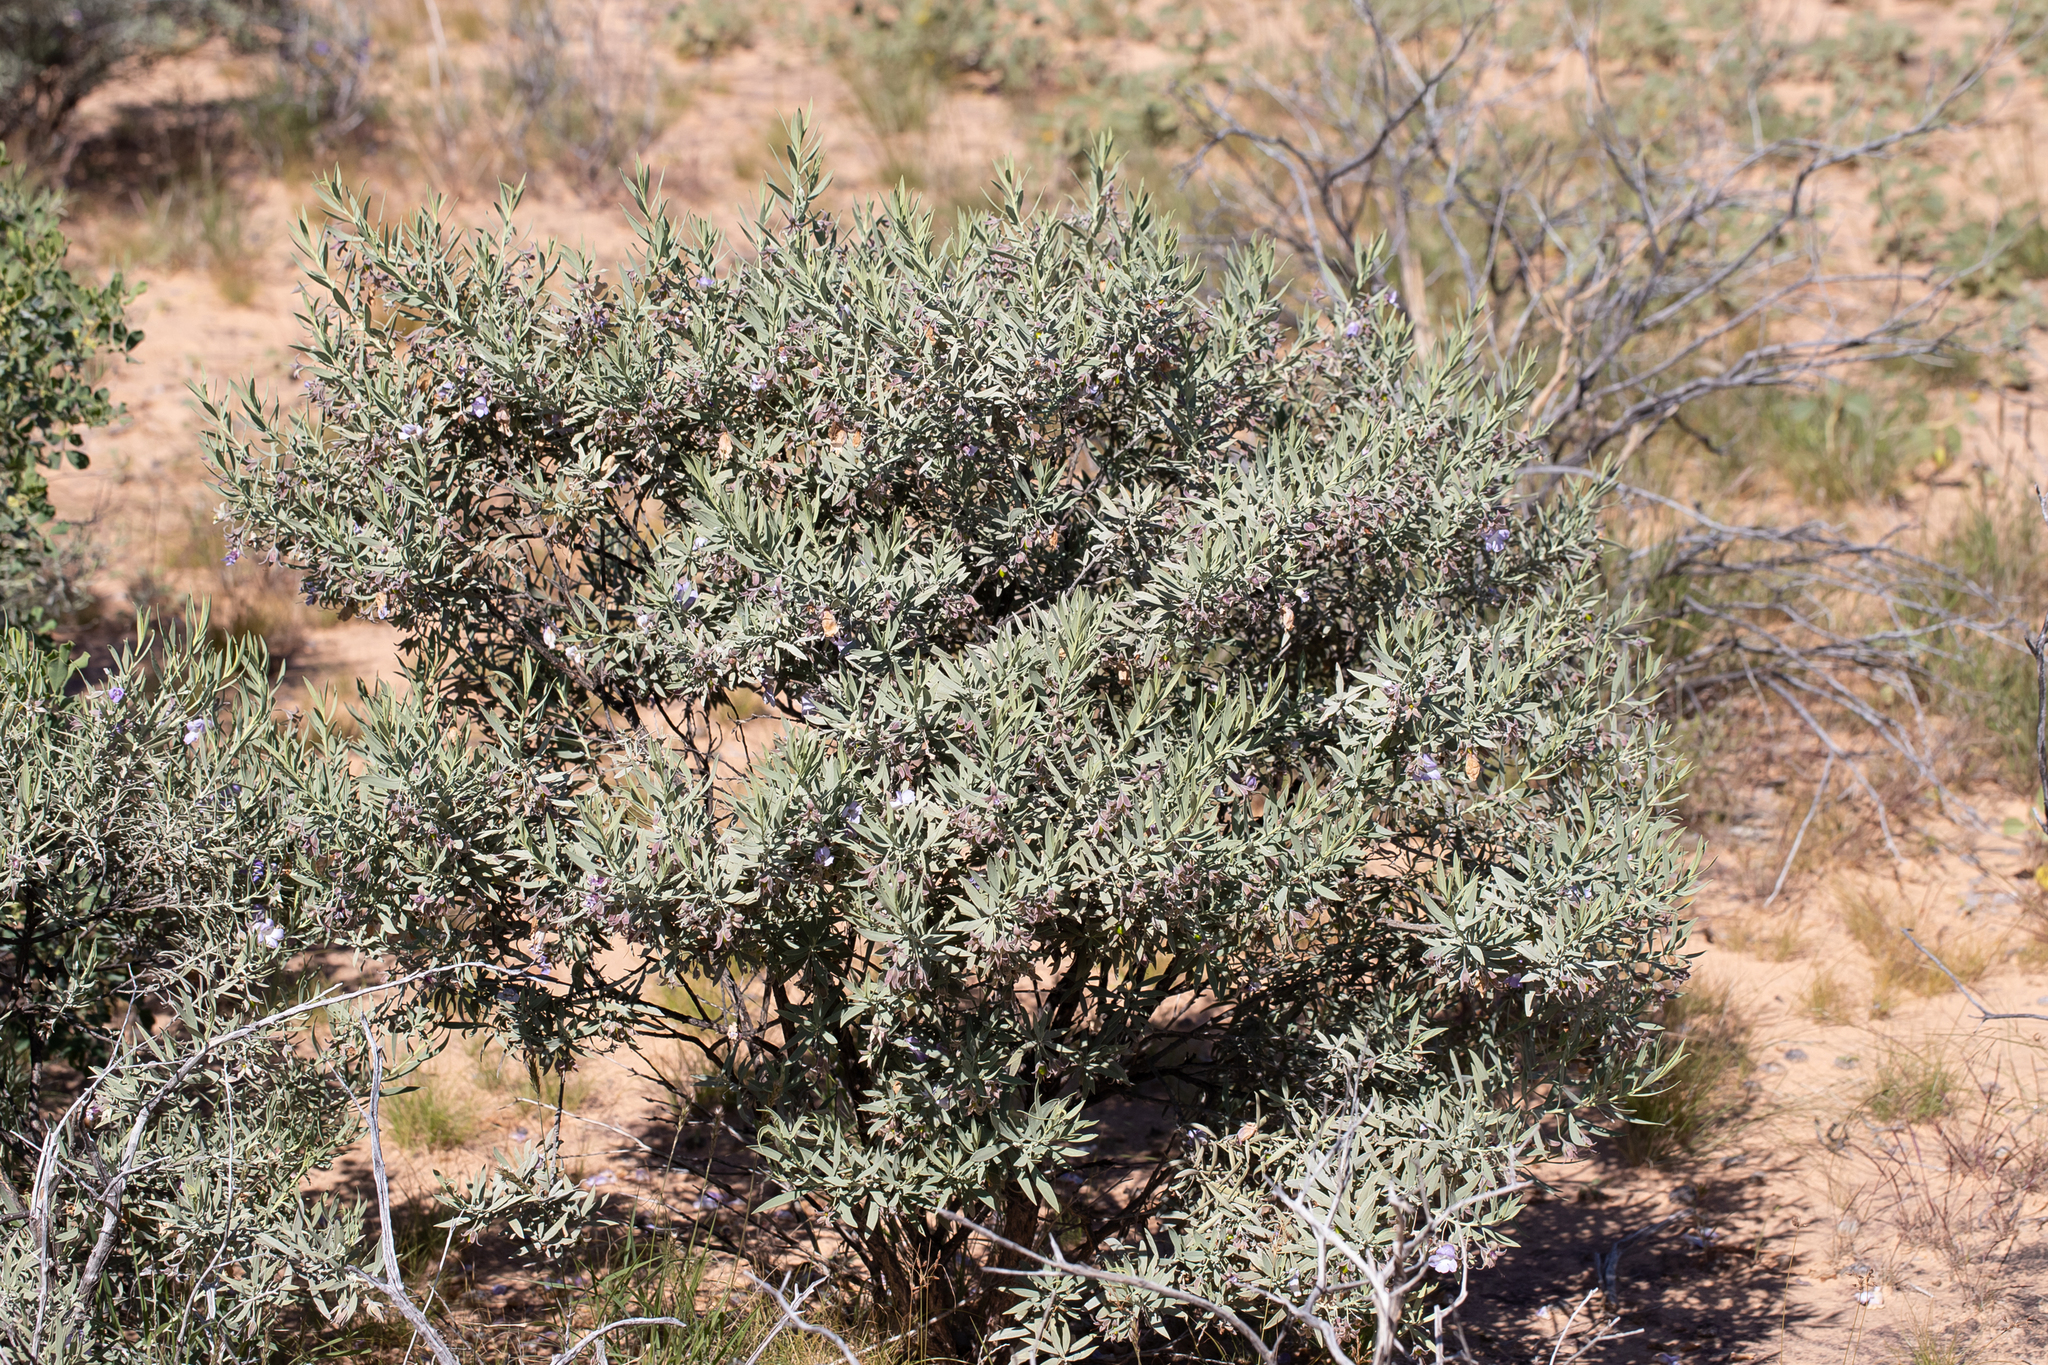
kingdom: Plantae
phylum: Tracheophyta
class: Magnoliopsida
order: Lamiales
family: Scrophulariaceae
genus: Eremophila
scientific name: Eremophila bowmanii
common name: Silver turkeybush
